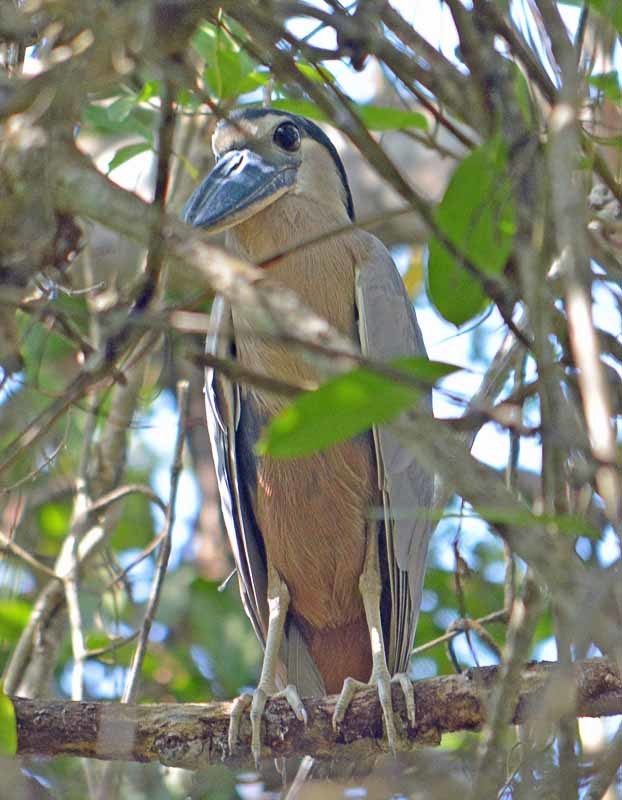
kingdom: Animalia
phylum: Chordata
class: Aves
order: Pelecaniformes
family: Ardeidae
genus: Cochlearius
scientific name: Cochlearius cochlearius
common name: Boat-billed heron
